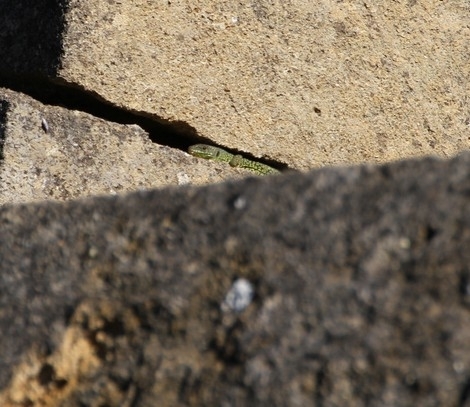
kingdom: Animalia
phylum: Chordata
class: Squamata
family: Lacertidae
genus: Timon
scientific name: Timon lepidus
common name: Ocellated lizard
